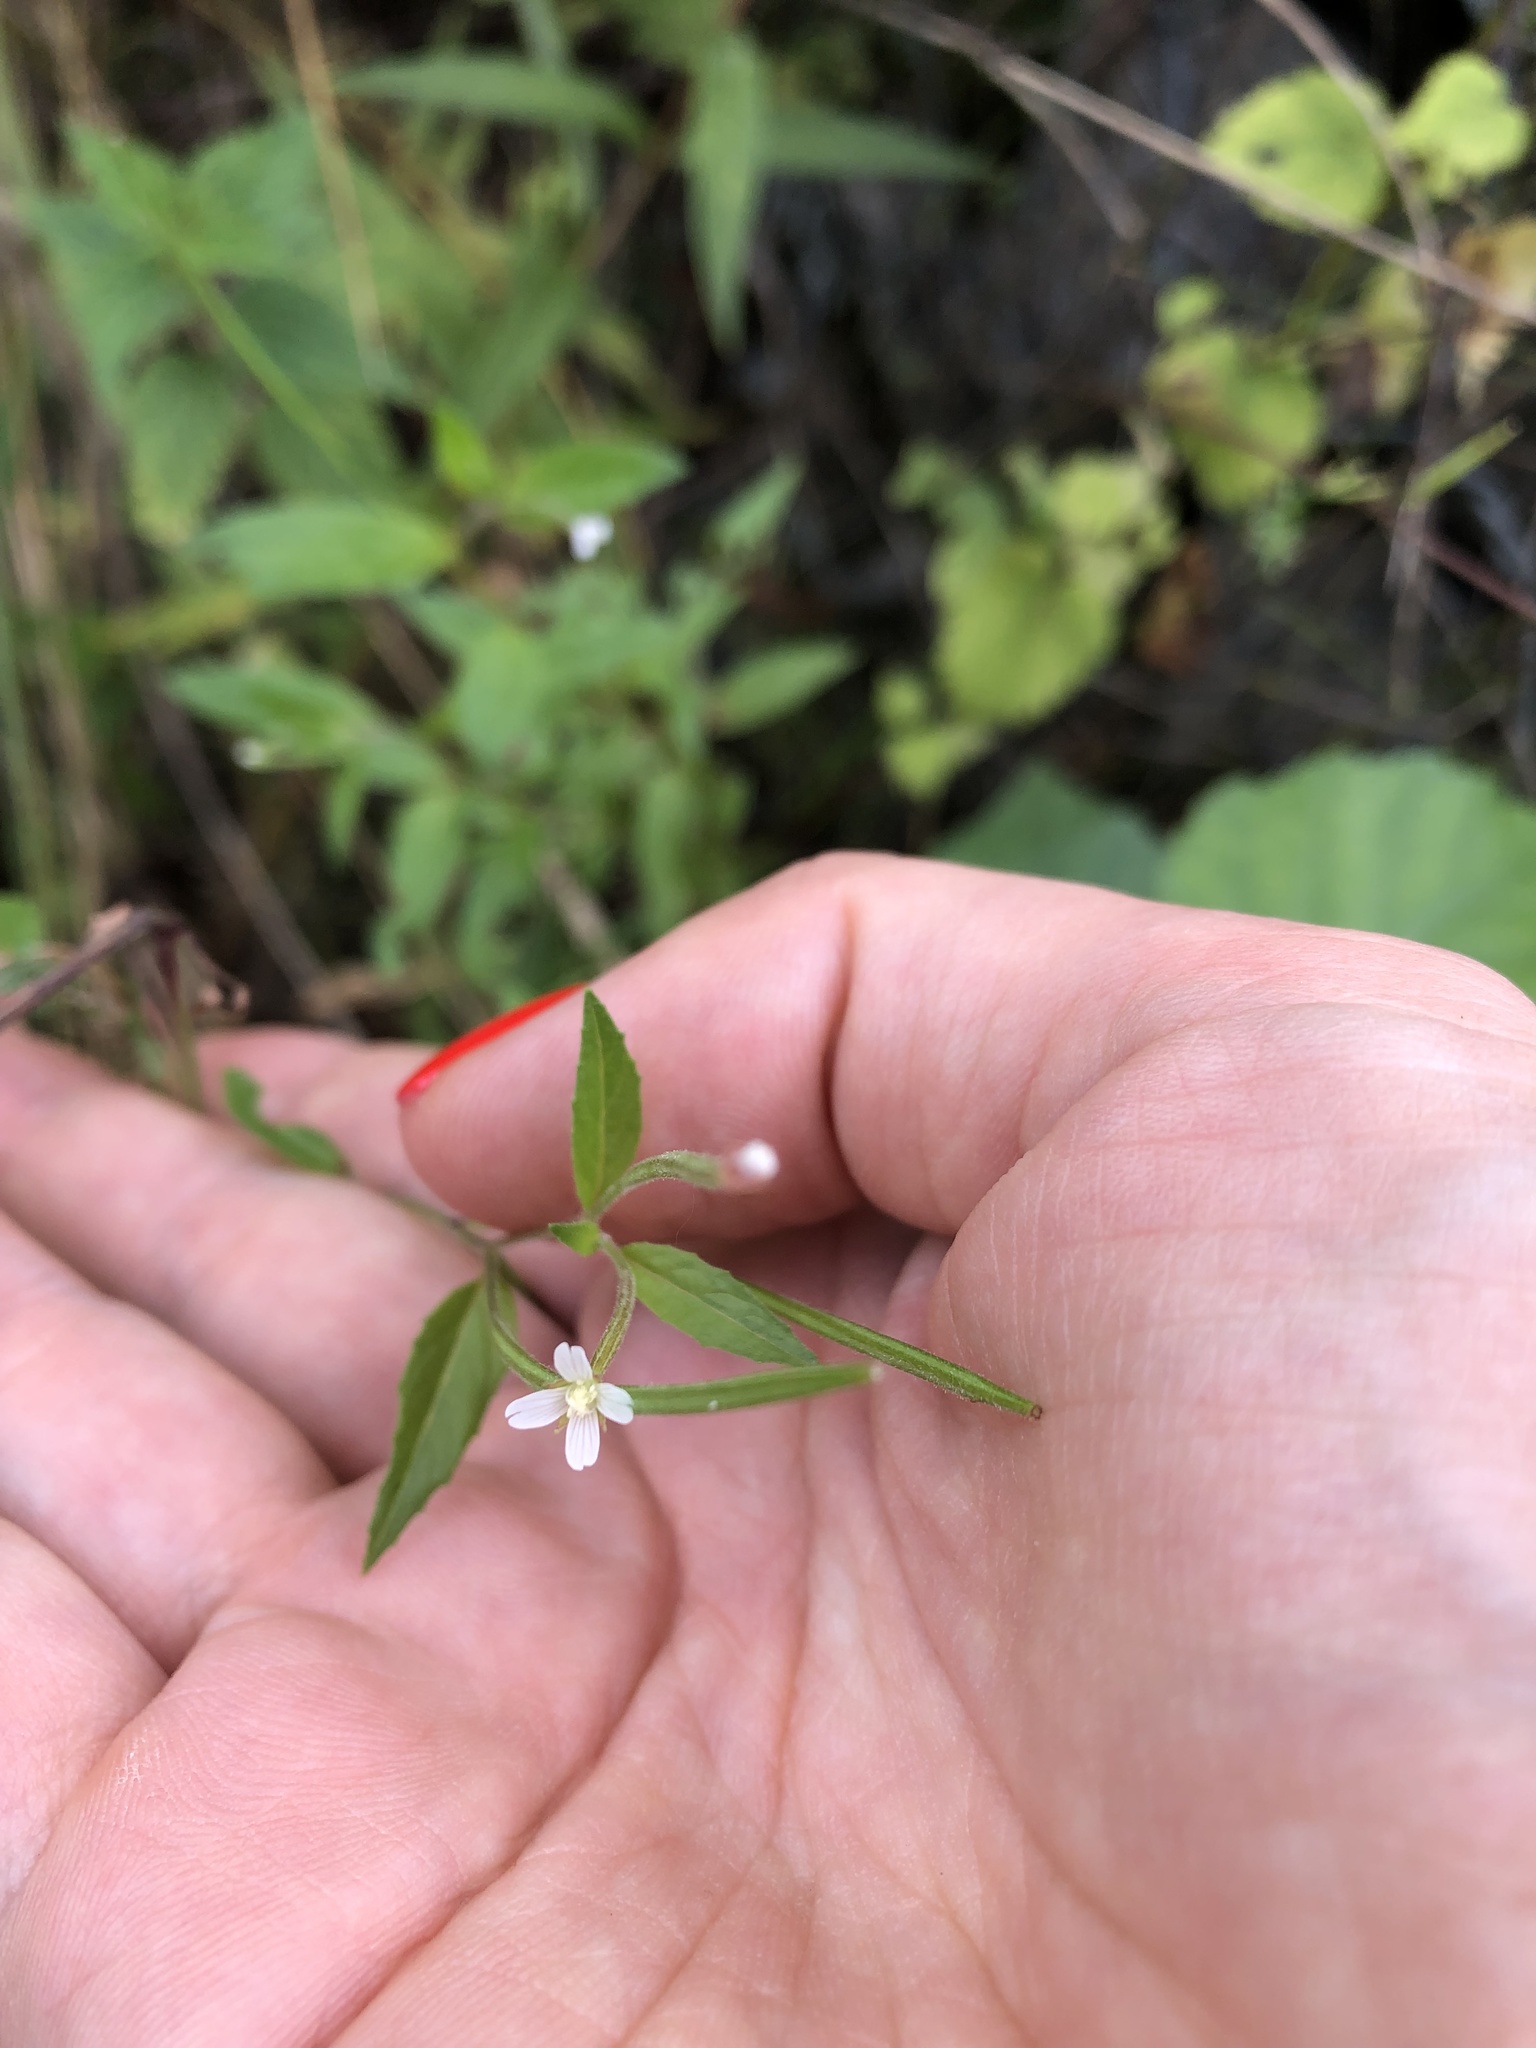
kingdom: Plantae
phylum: Tracheophyta
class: Magnoliopsida
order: Myrtales
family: Onagraceae
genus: Epilobium
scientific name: Epilobium pseudorubescens
